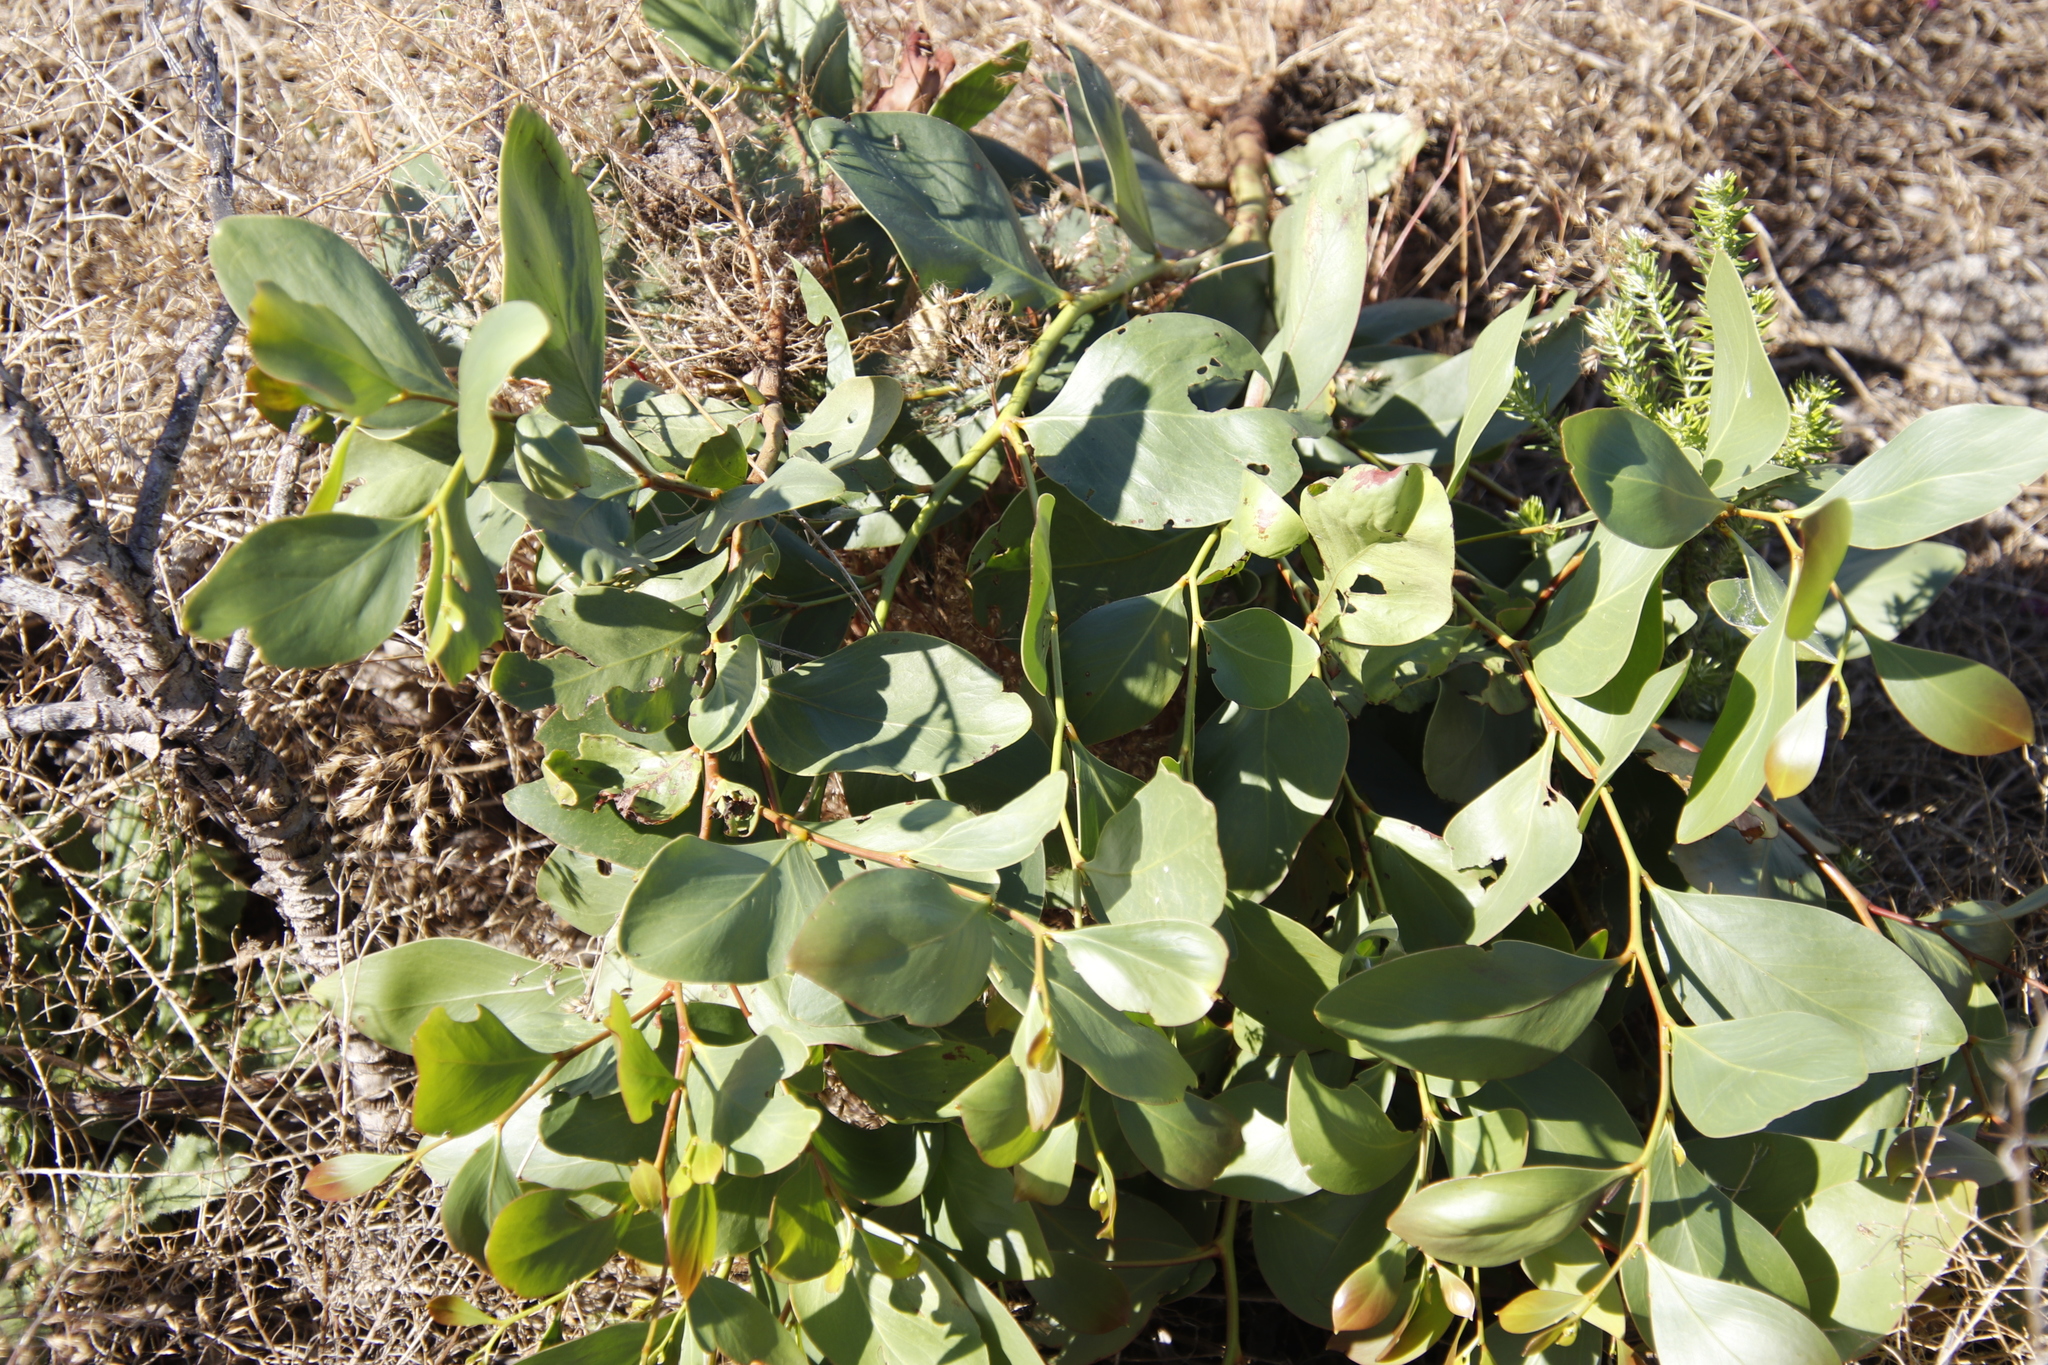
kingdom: Plantae
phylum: Tracheophyta
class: Magnoliopsida
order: Fabales
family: Fabaceae
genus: Acacia
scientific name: Acacia pycnantha
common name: Golden wattle
